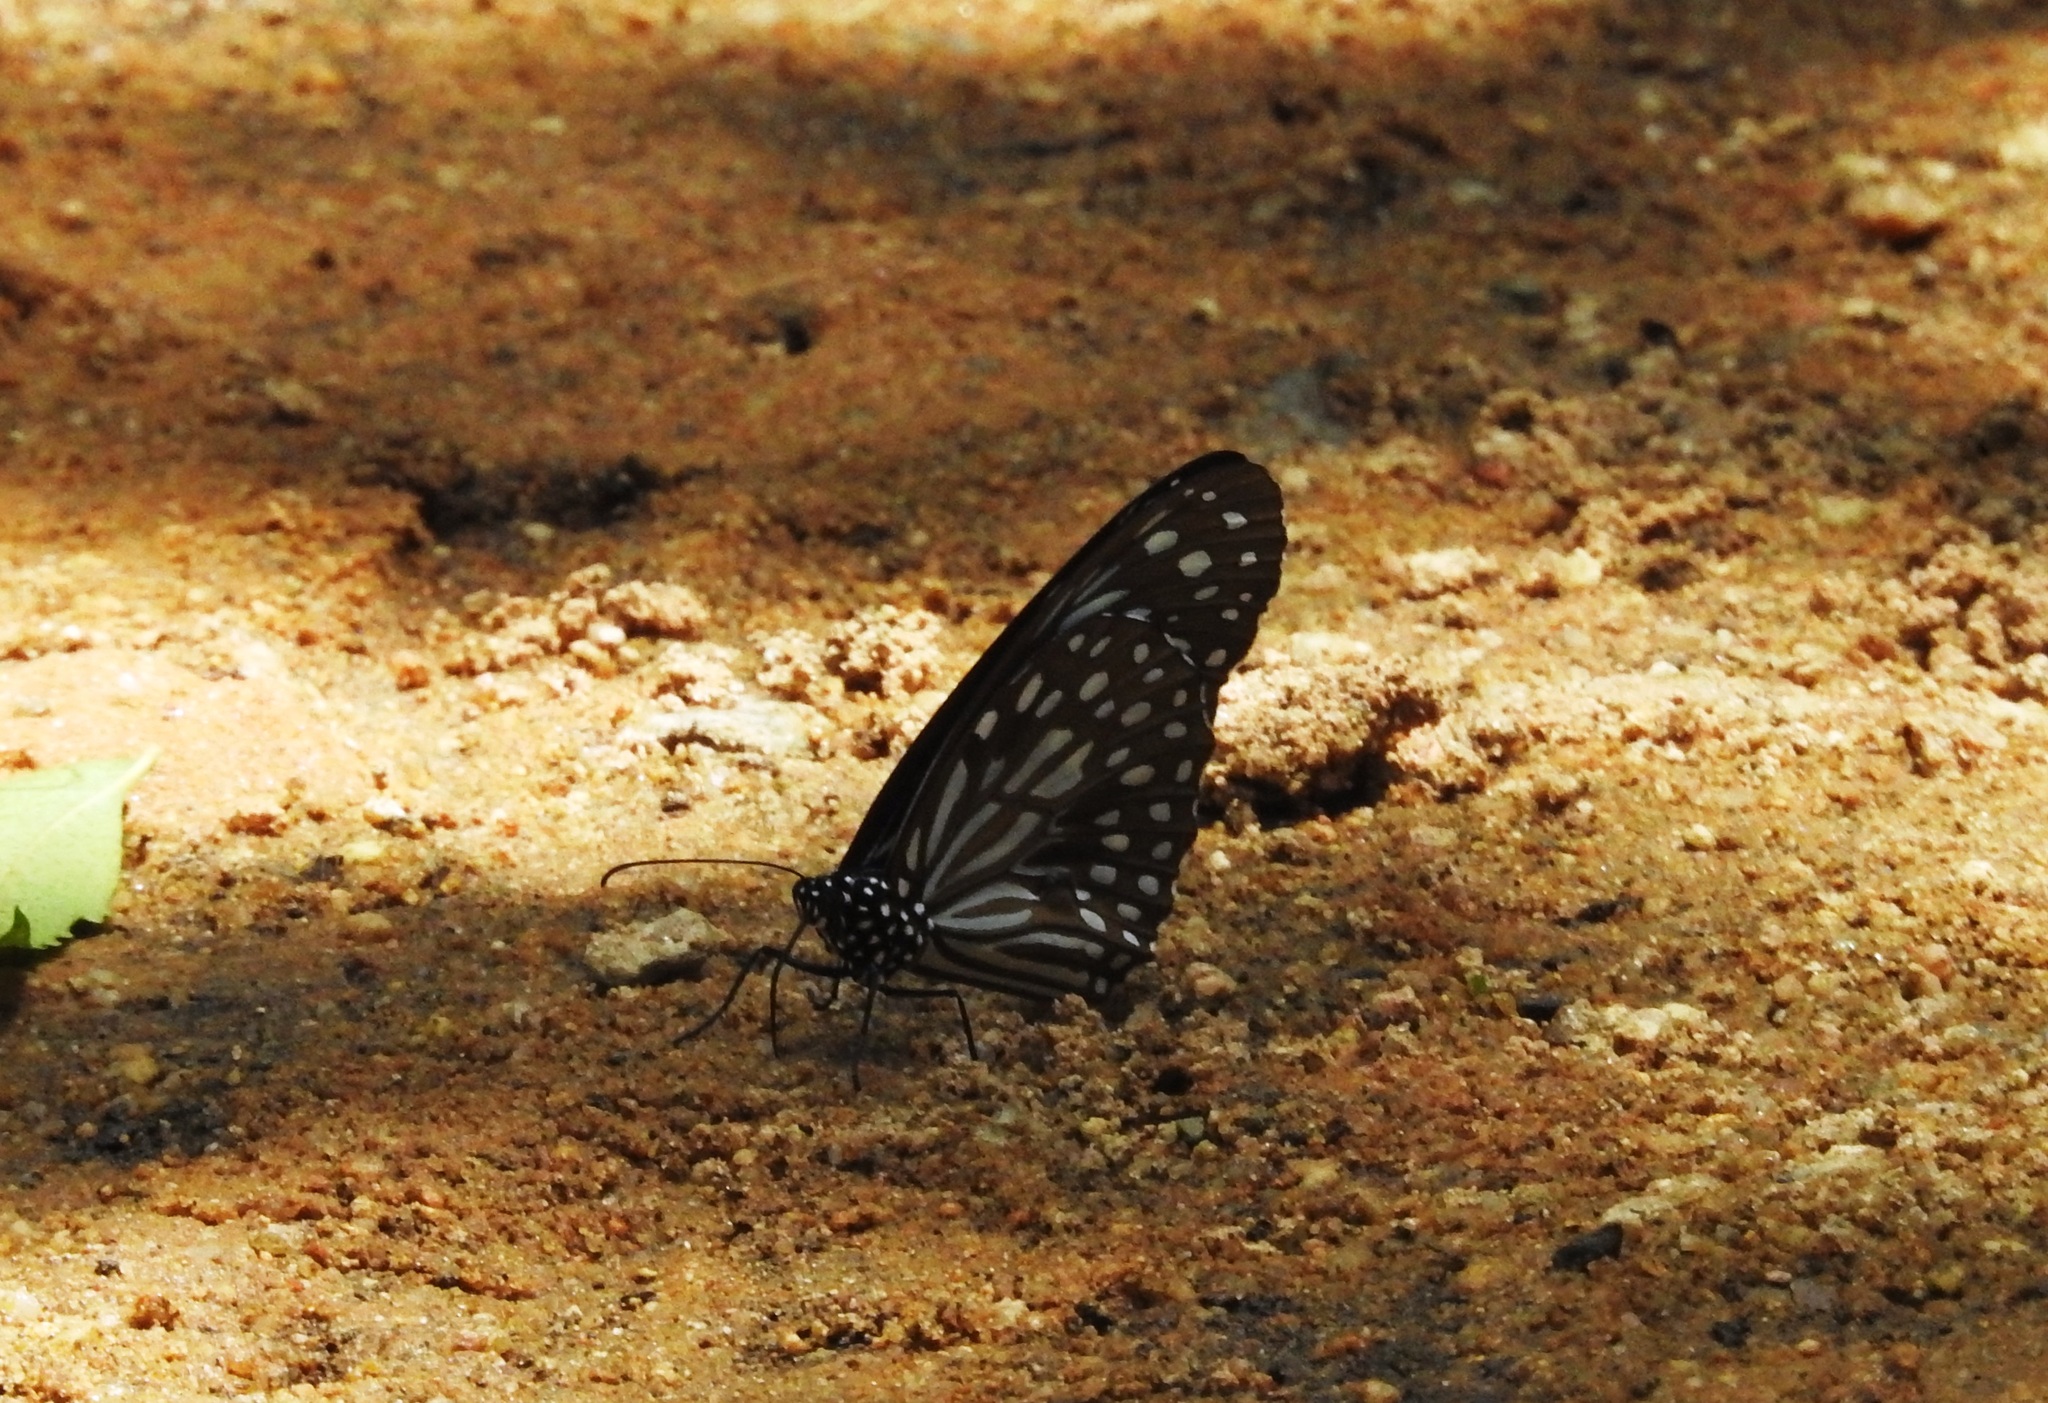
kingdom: Animalia
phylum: Arthropoda
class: Insecta
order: Lepidoptera
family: Nymphalidae
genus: Tirumala
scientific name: Tirumala septentrionis
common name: Dark blue tiger butterfly
